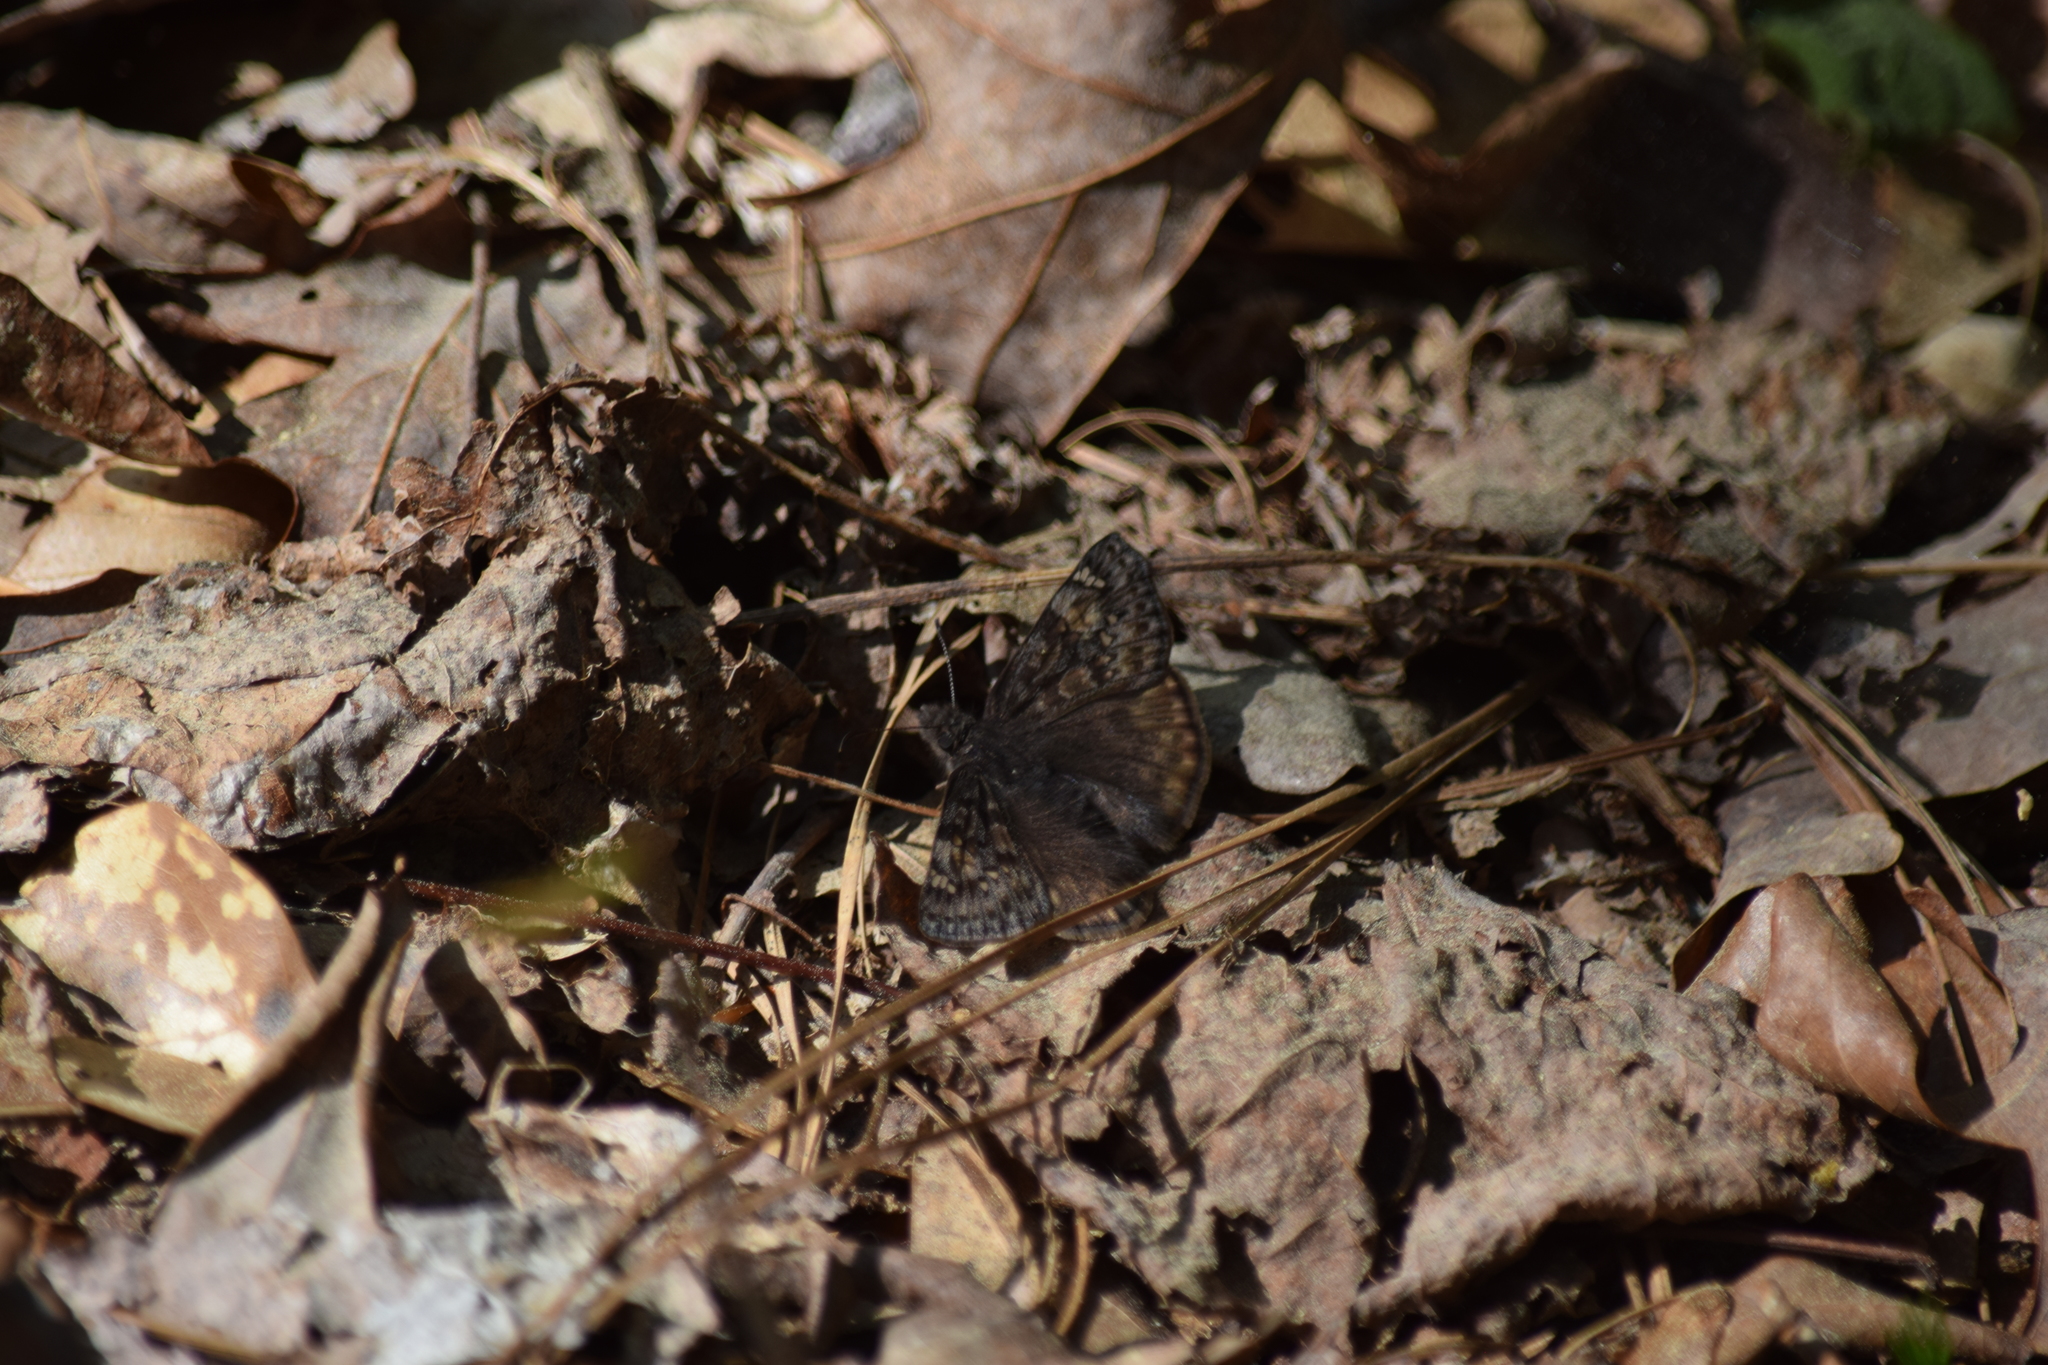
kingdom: Animalia
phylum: Arthropoda
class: Insecta
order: Lepidoptera
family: Hesperiidae
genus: Erynnis
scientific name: Erynnis juvenalis
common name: Juvenal's duskywing
